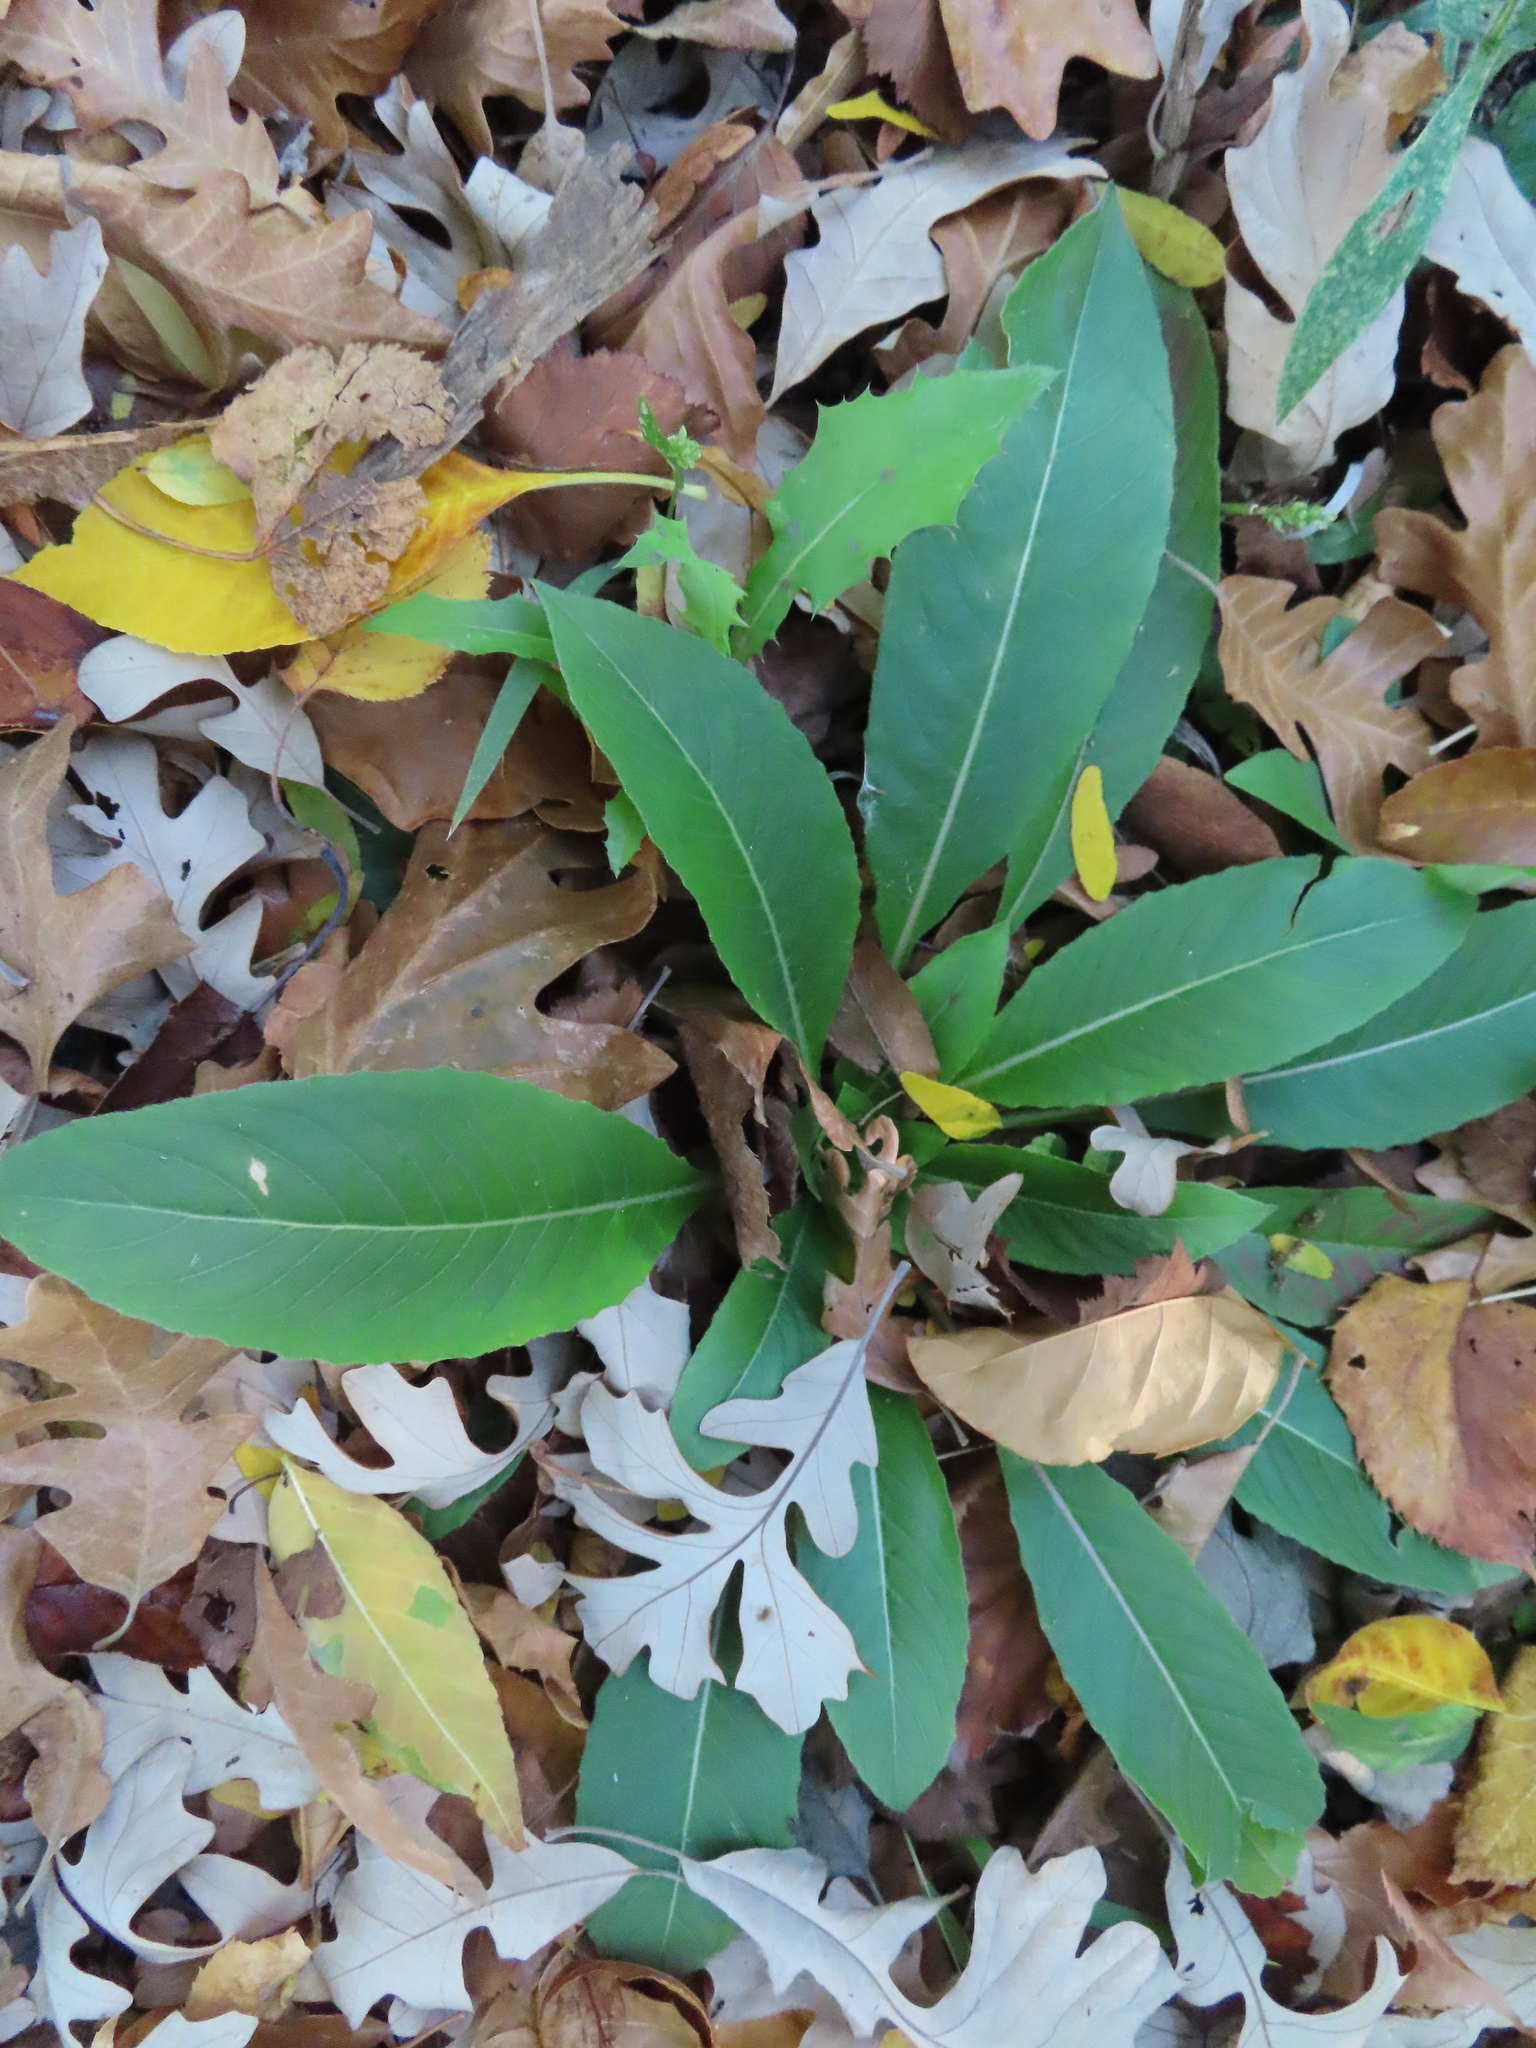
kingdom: Plantae
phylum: Tracheophyta
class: Magnoliopsida
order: Brassicales
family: Brassicaceae
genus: Hesperis
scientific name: Hesperis matronalis
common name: Dame's-violet
